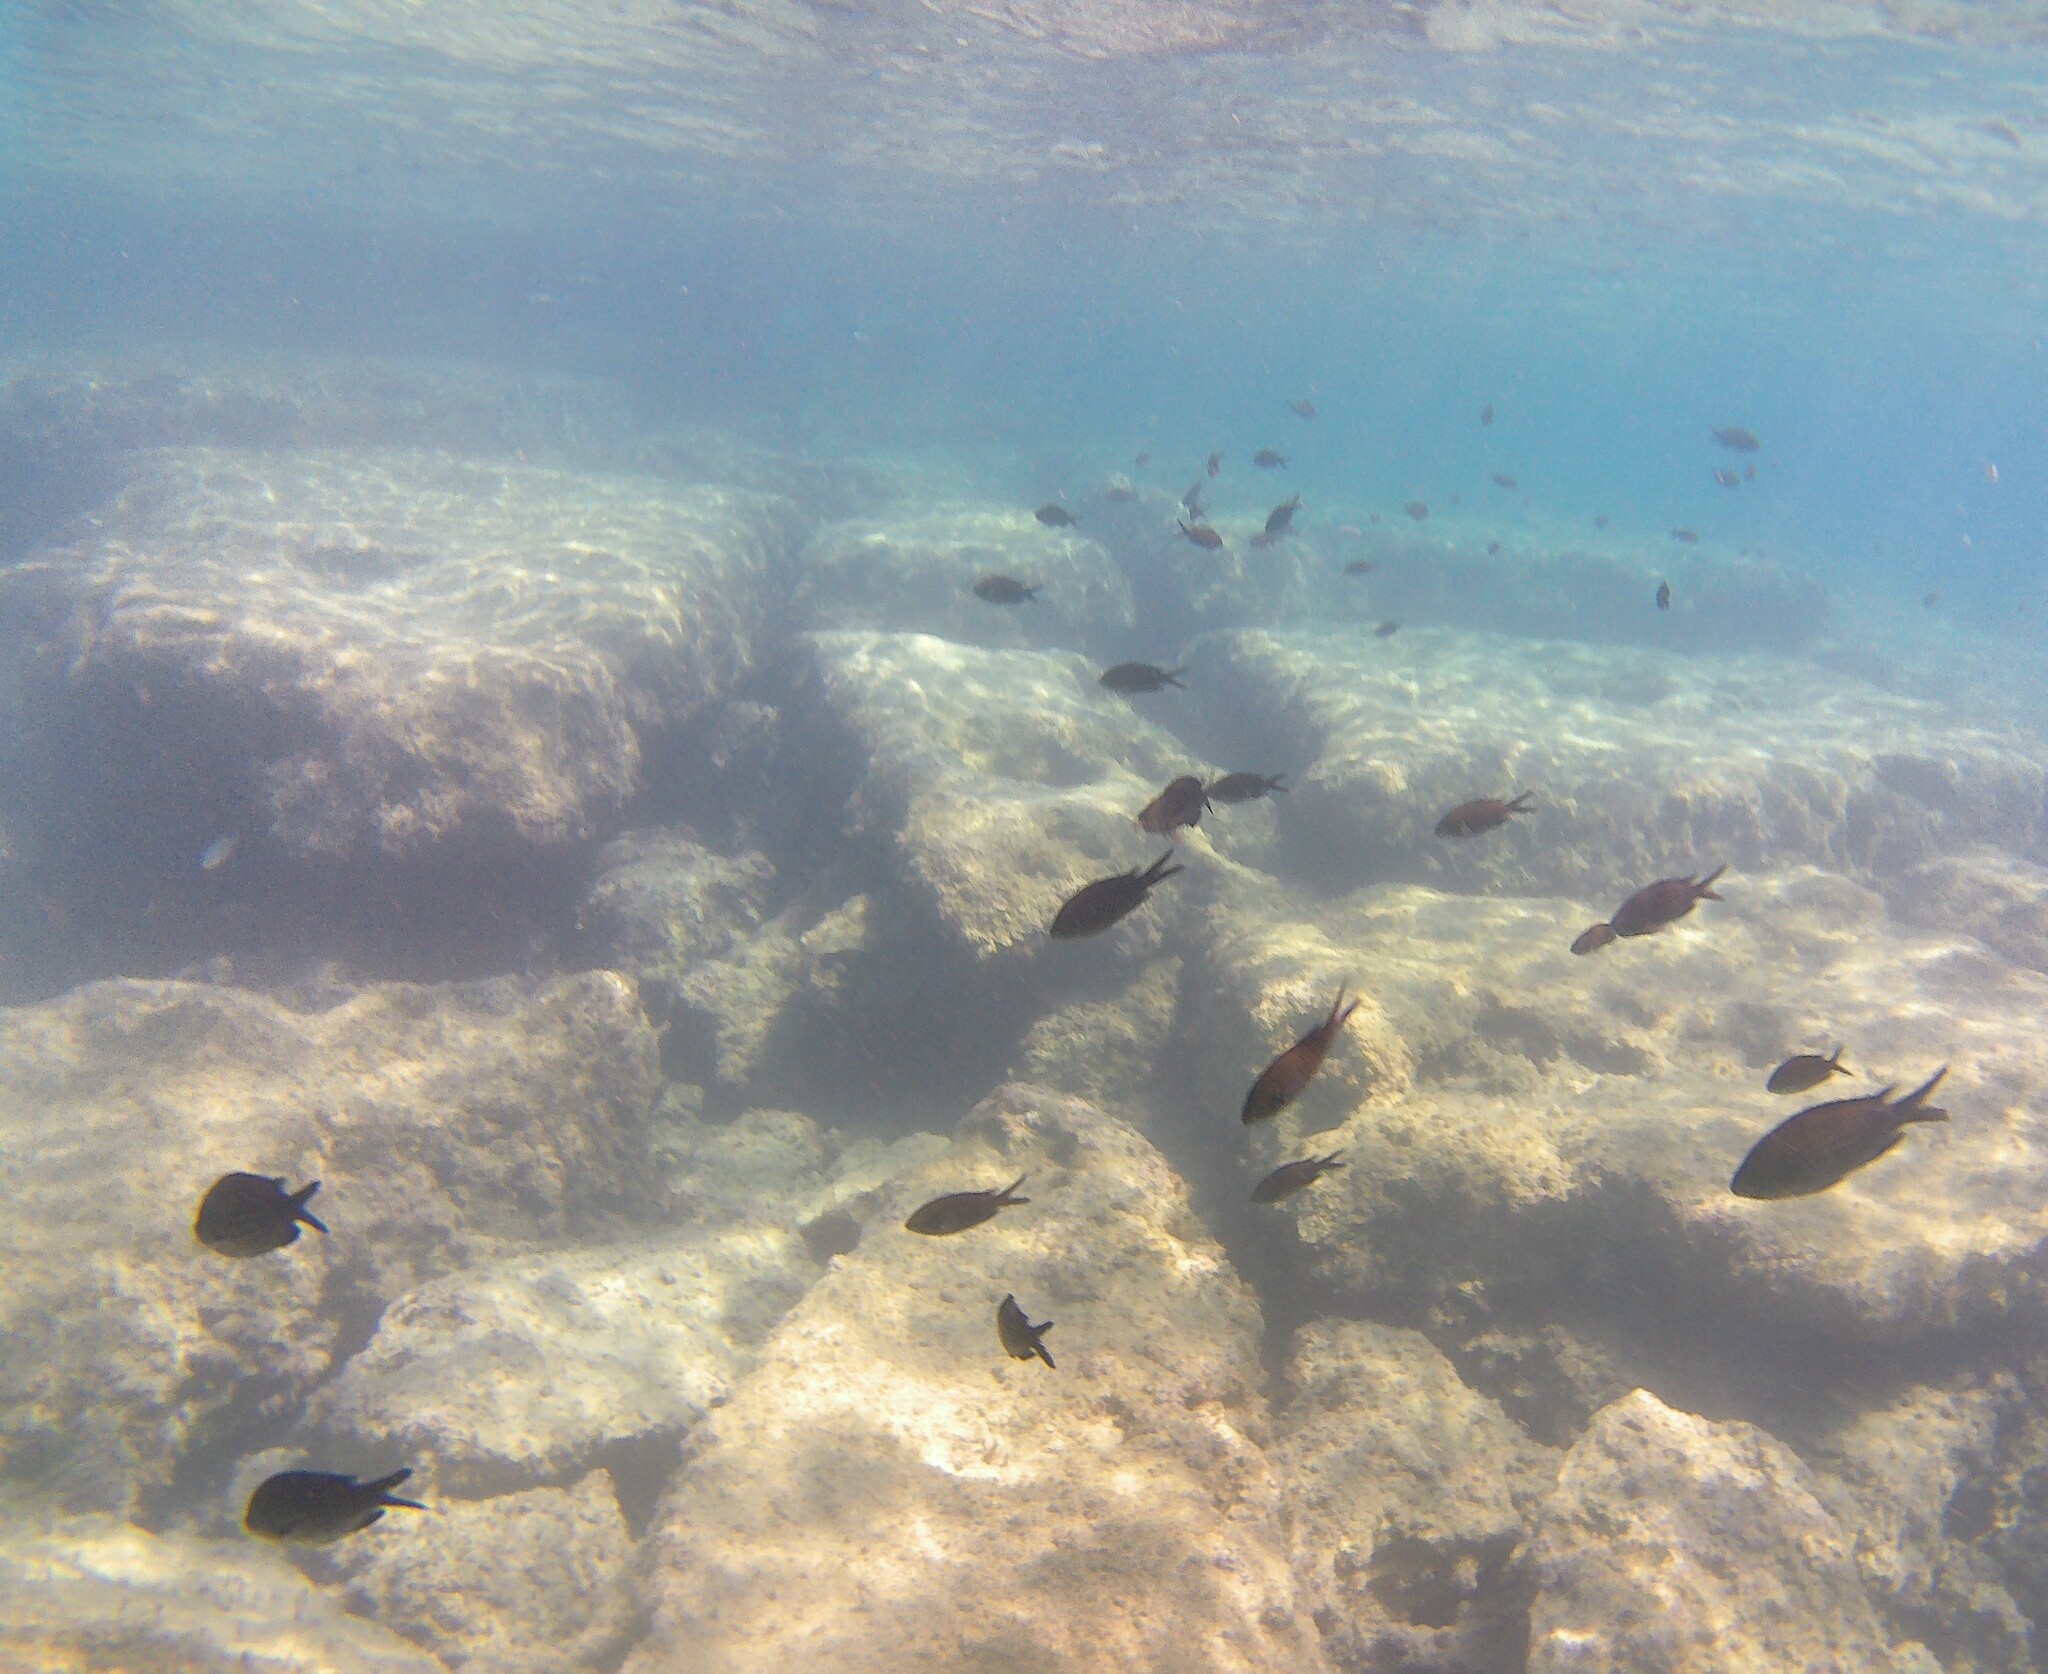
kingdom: Animalia
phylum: Chordata
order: Perciformes
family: Pomacentridae
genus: Chromis
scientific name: Chromis chromis
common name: Damselfish
